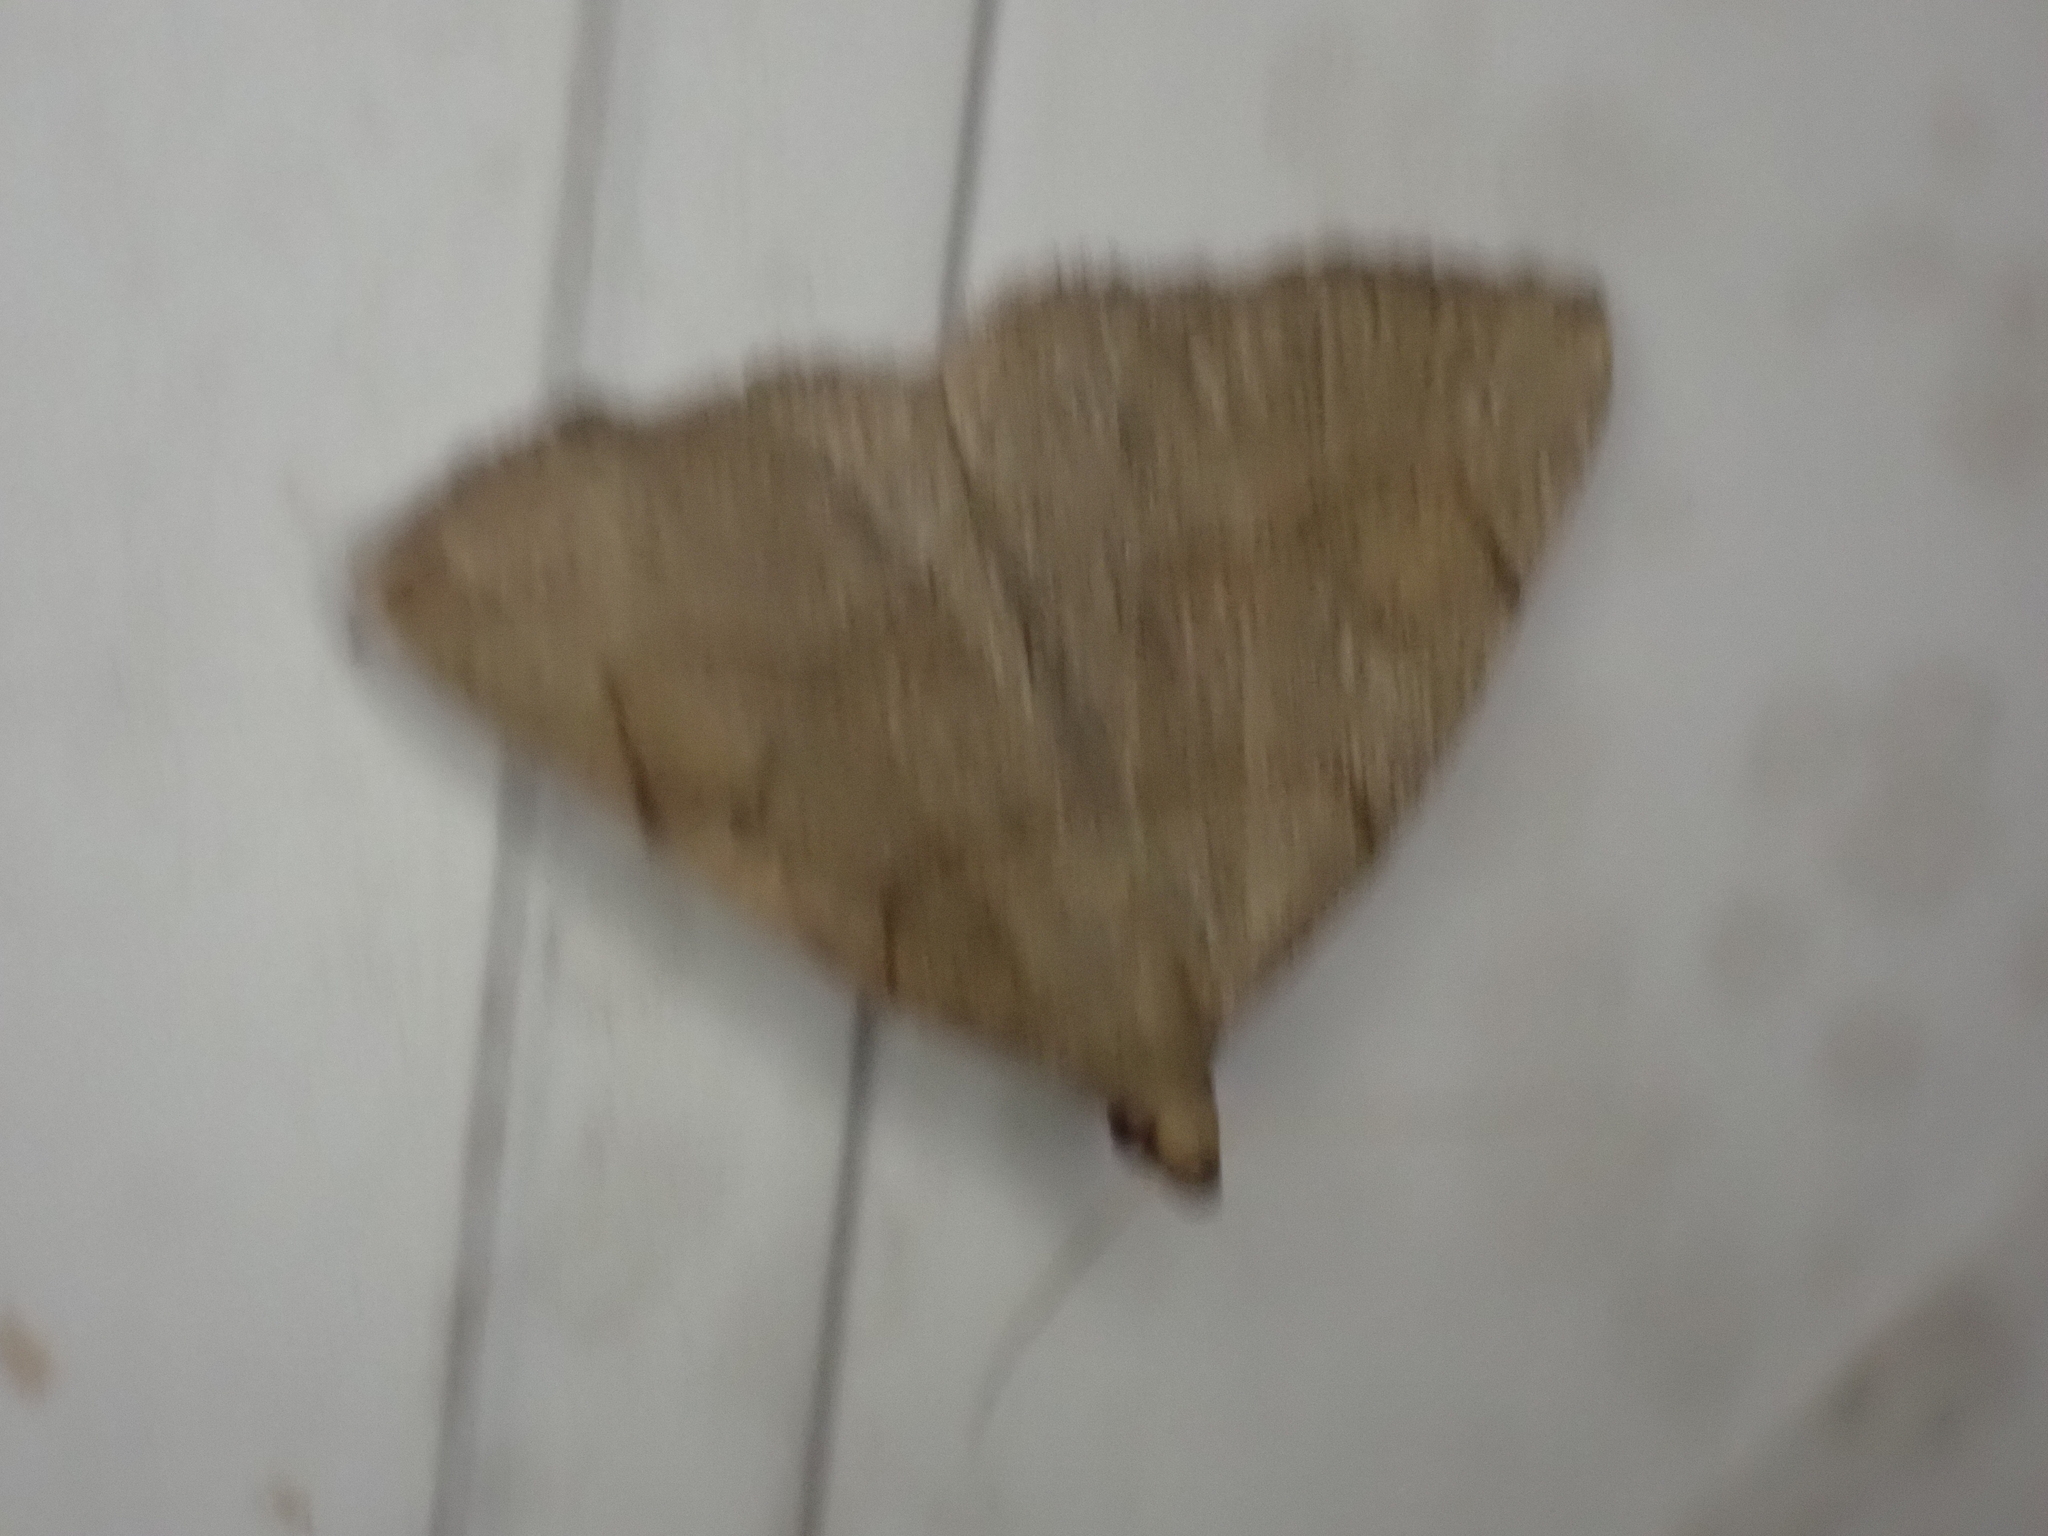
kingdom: Animalia
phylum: Arthropoda
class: Insecta
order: Lepidoptera
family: Erebidae
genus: Zanclognatha
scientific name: Zanclognatha pedipilalis
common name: Grayish fan-foot
